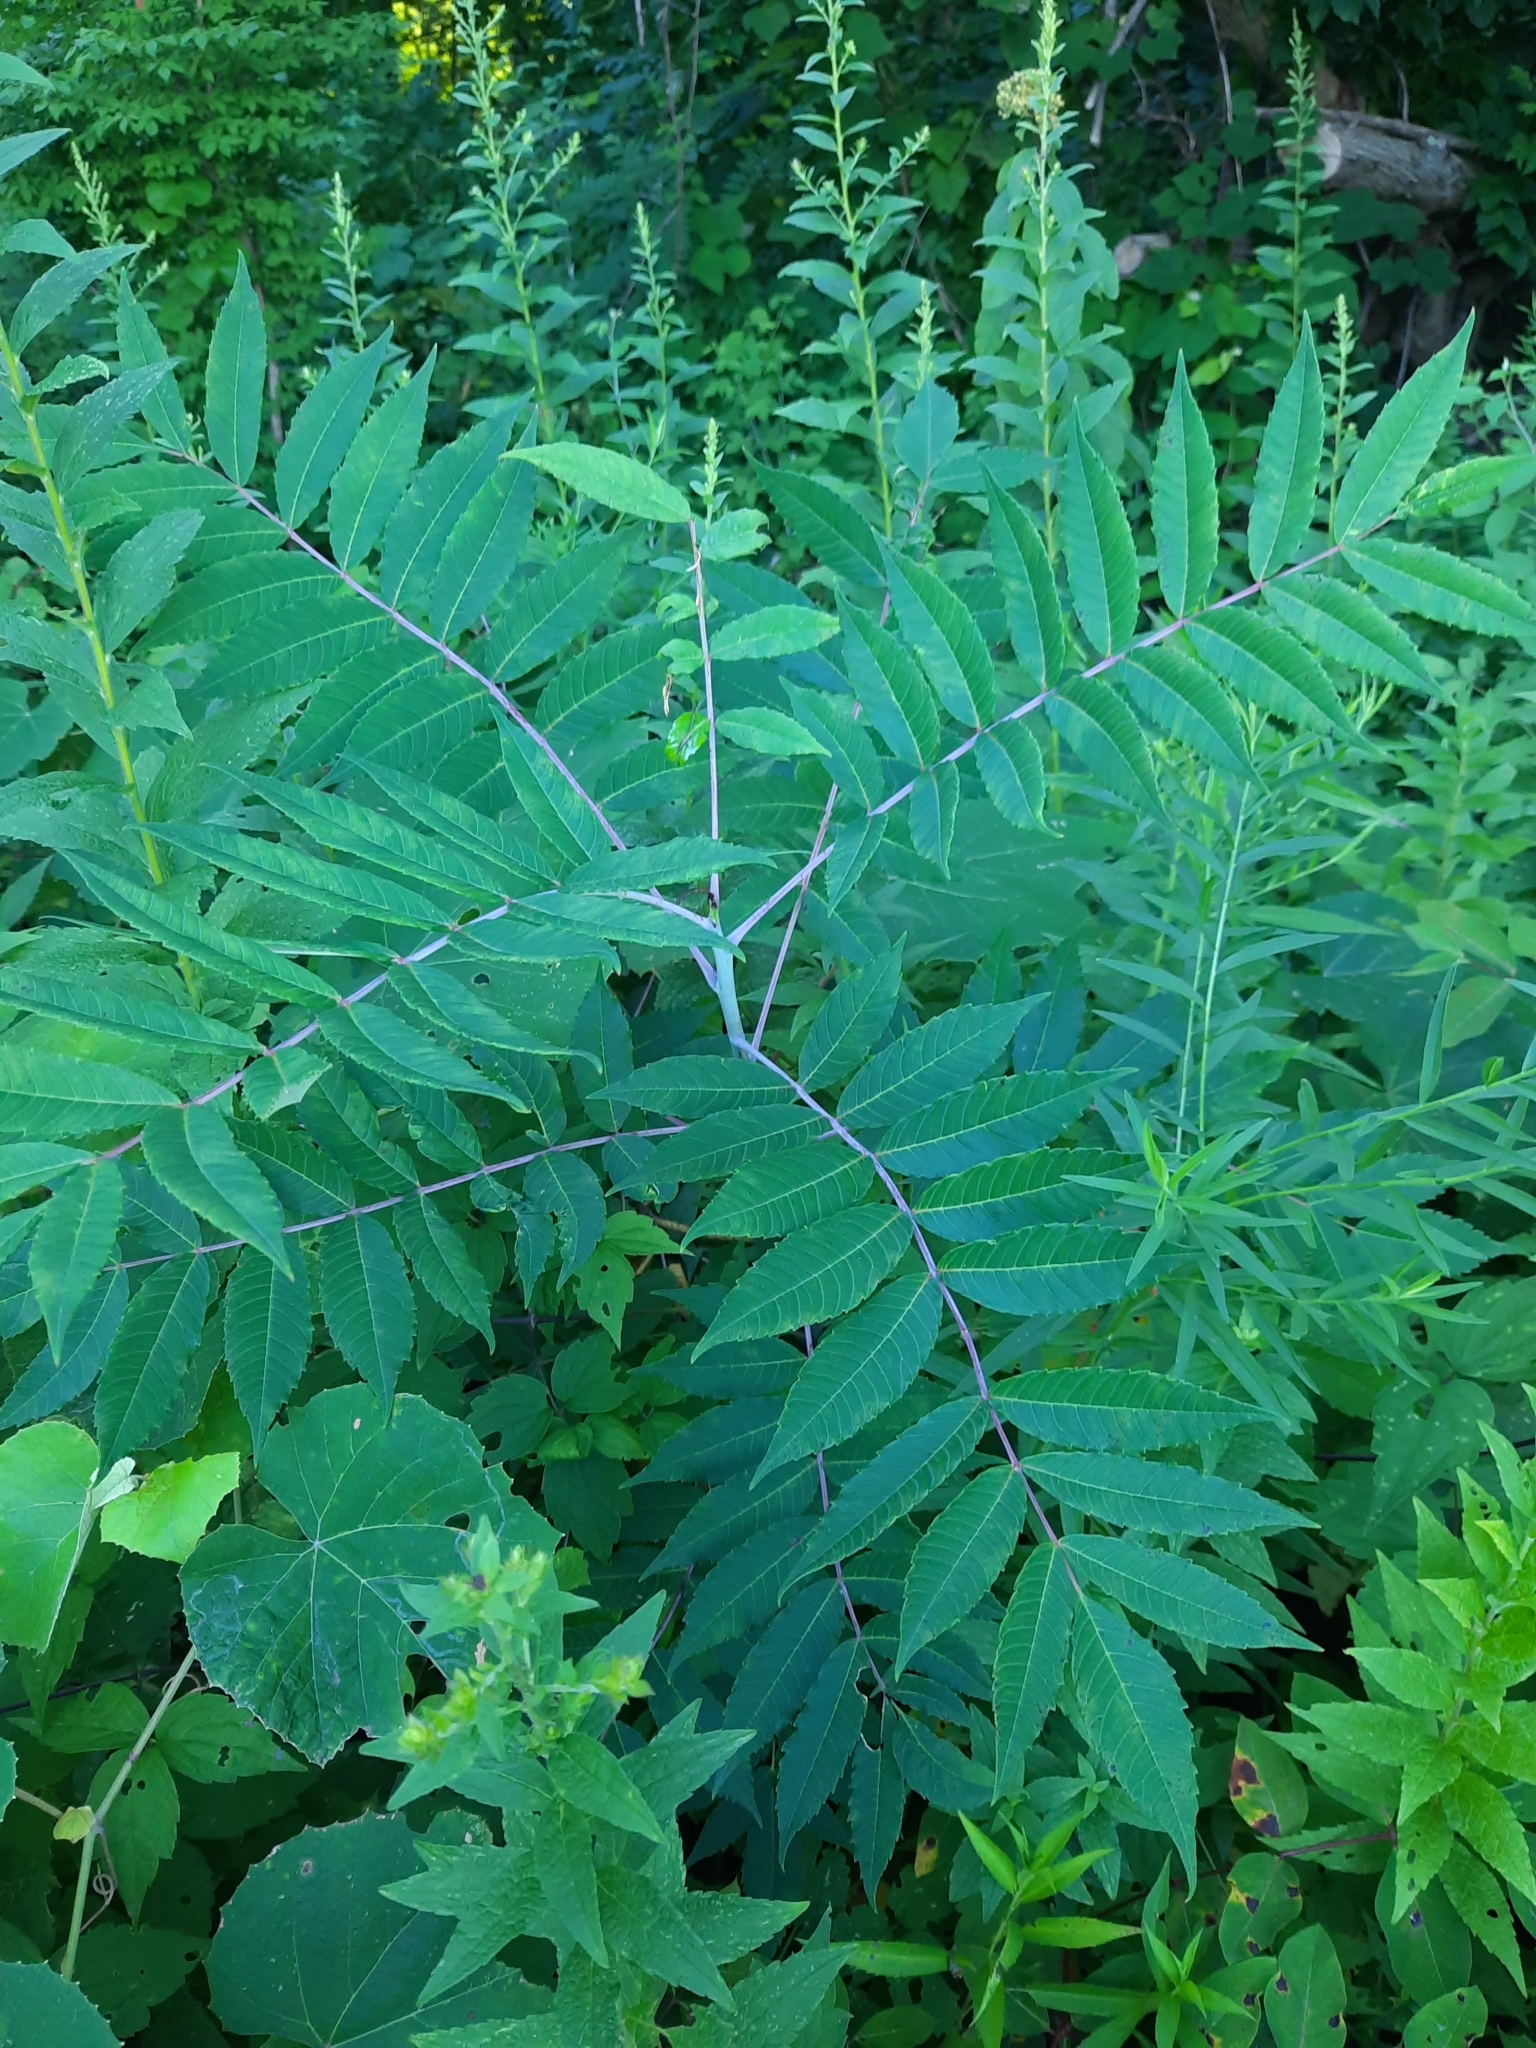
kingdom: Plantae
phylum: Tracheophyta
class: Magnoliopsida
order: Sapindales
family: Anacardiaceae
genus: Rhus
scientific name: Rhus glabra
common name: Scarlet sumac
